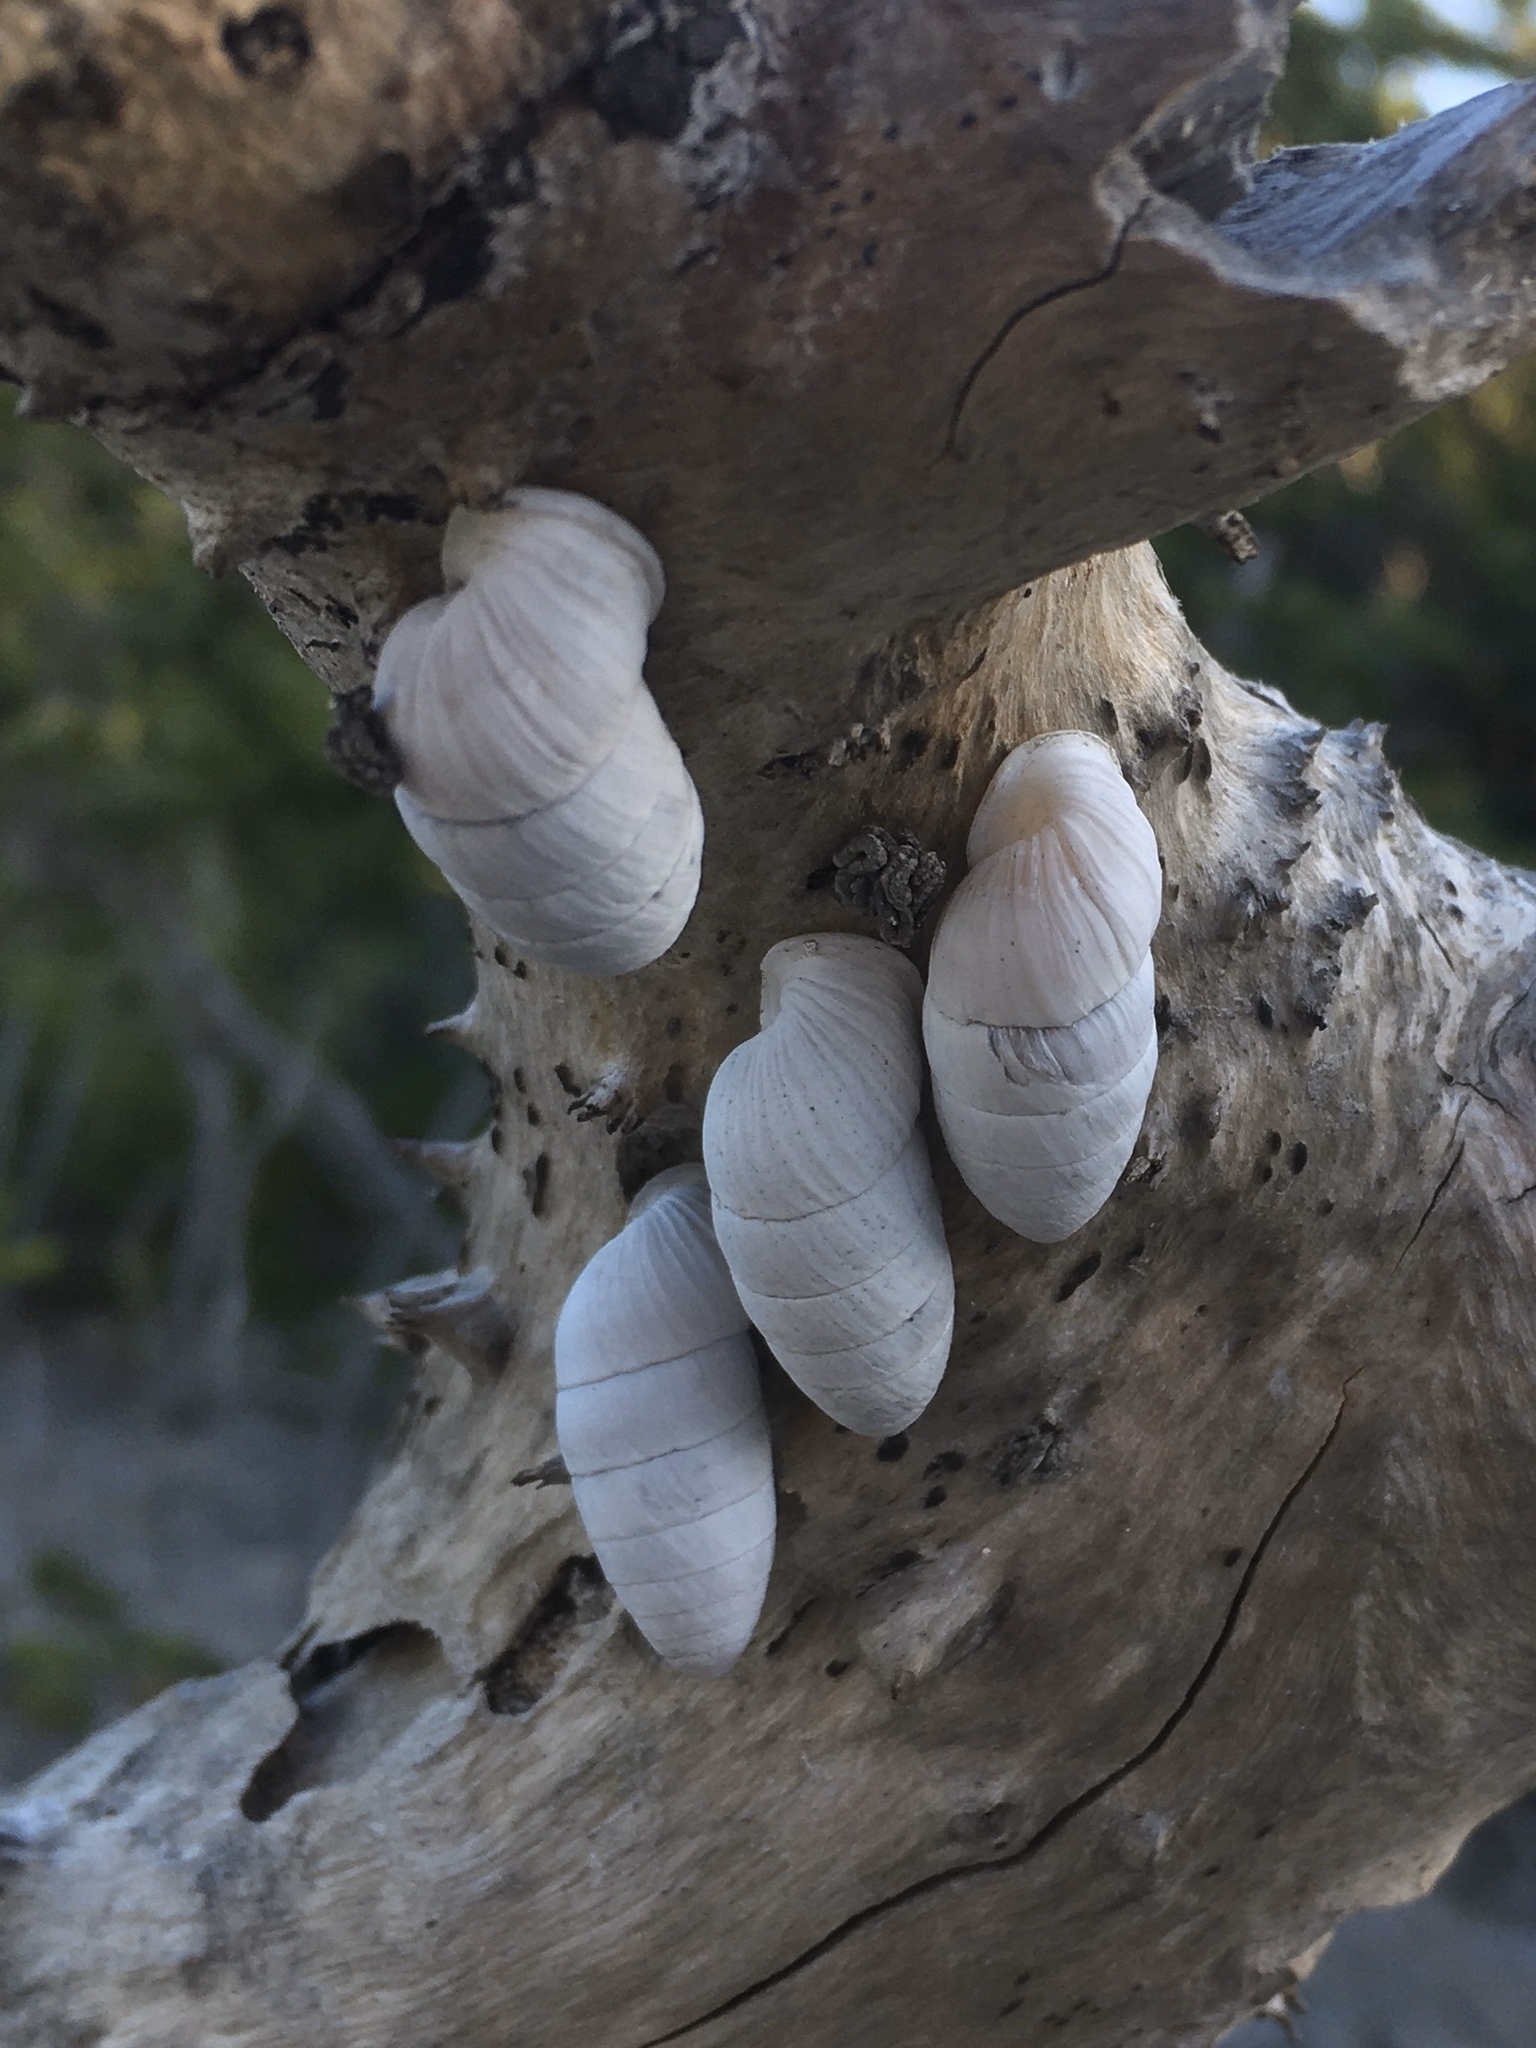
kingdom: Animalia
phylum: Mollusca
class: Gastropoda
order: Stylommatophora
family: Cerionidae
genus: Cerion
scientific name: Cerion incanum
